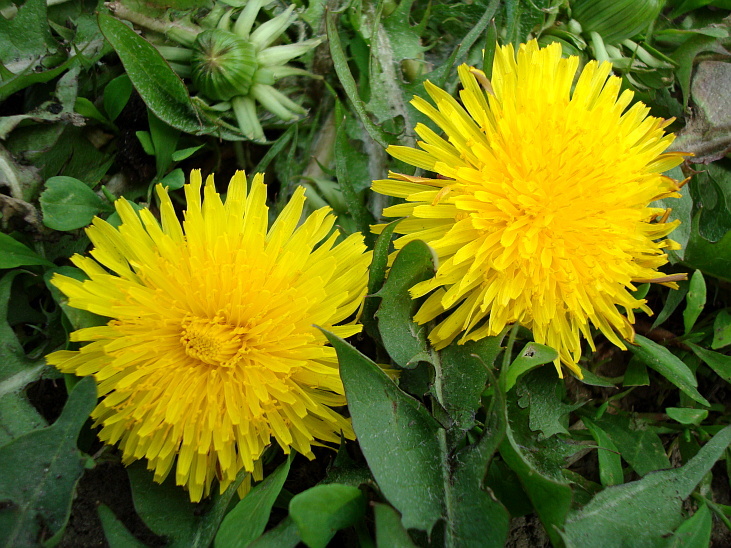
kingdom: Plantae
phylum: Tracheophyta
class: Magnoliopsida
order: Asterales
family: Asteraceae
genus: Taraxacum
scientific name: Taraxacum officinale
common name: Common dandelion
